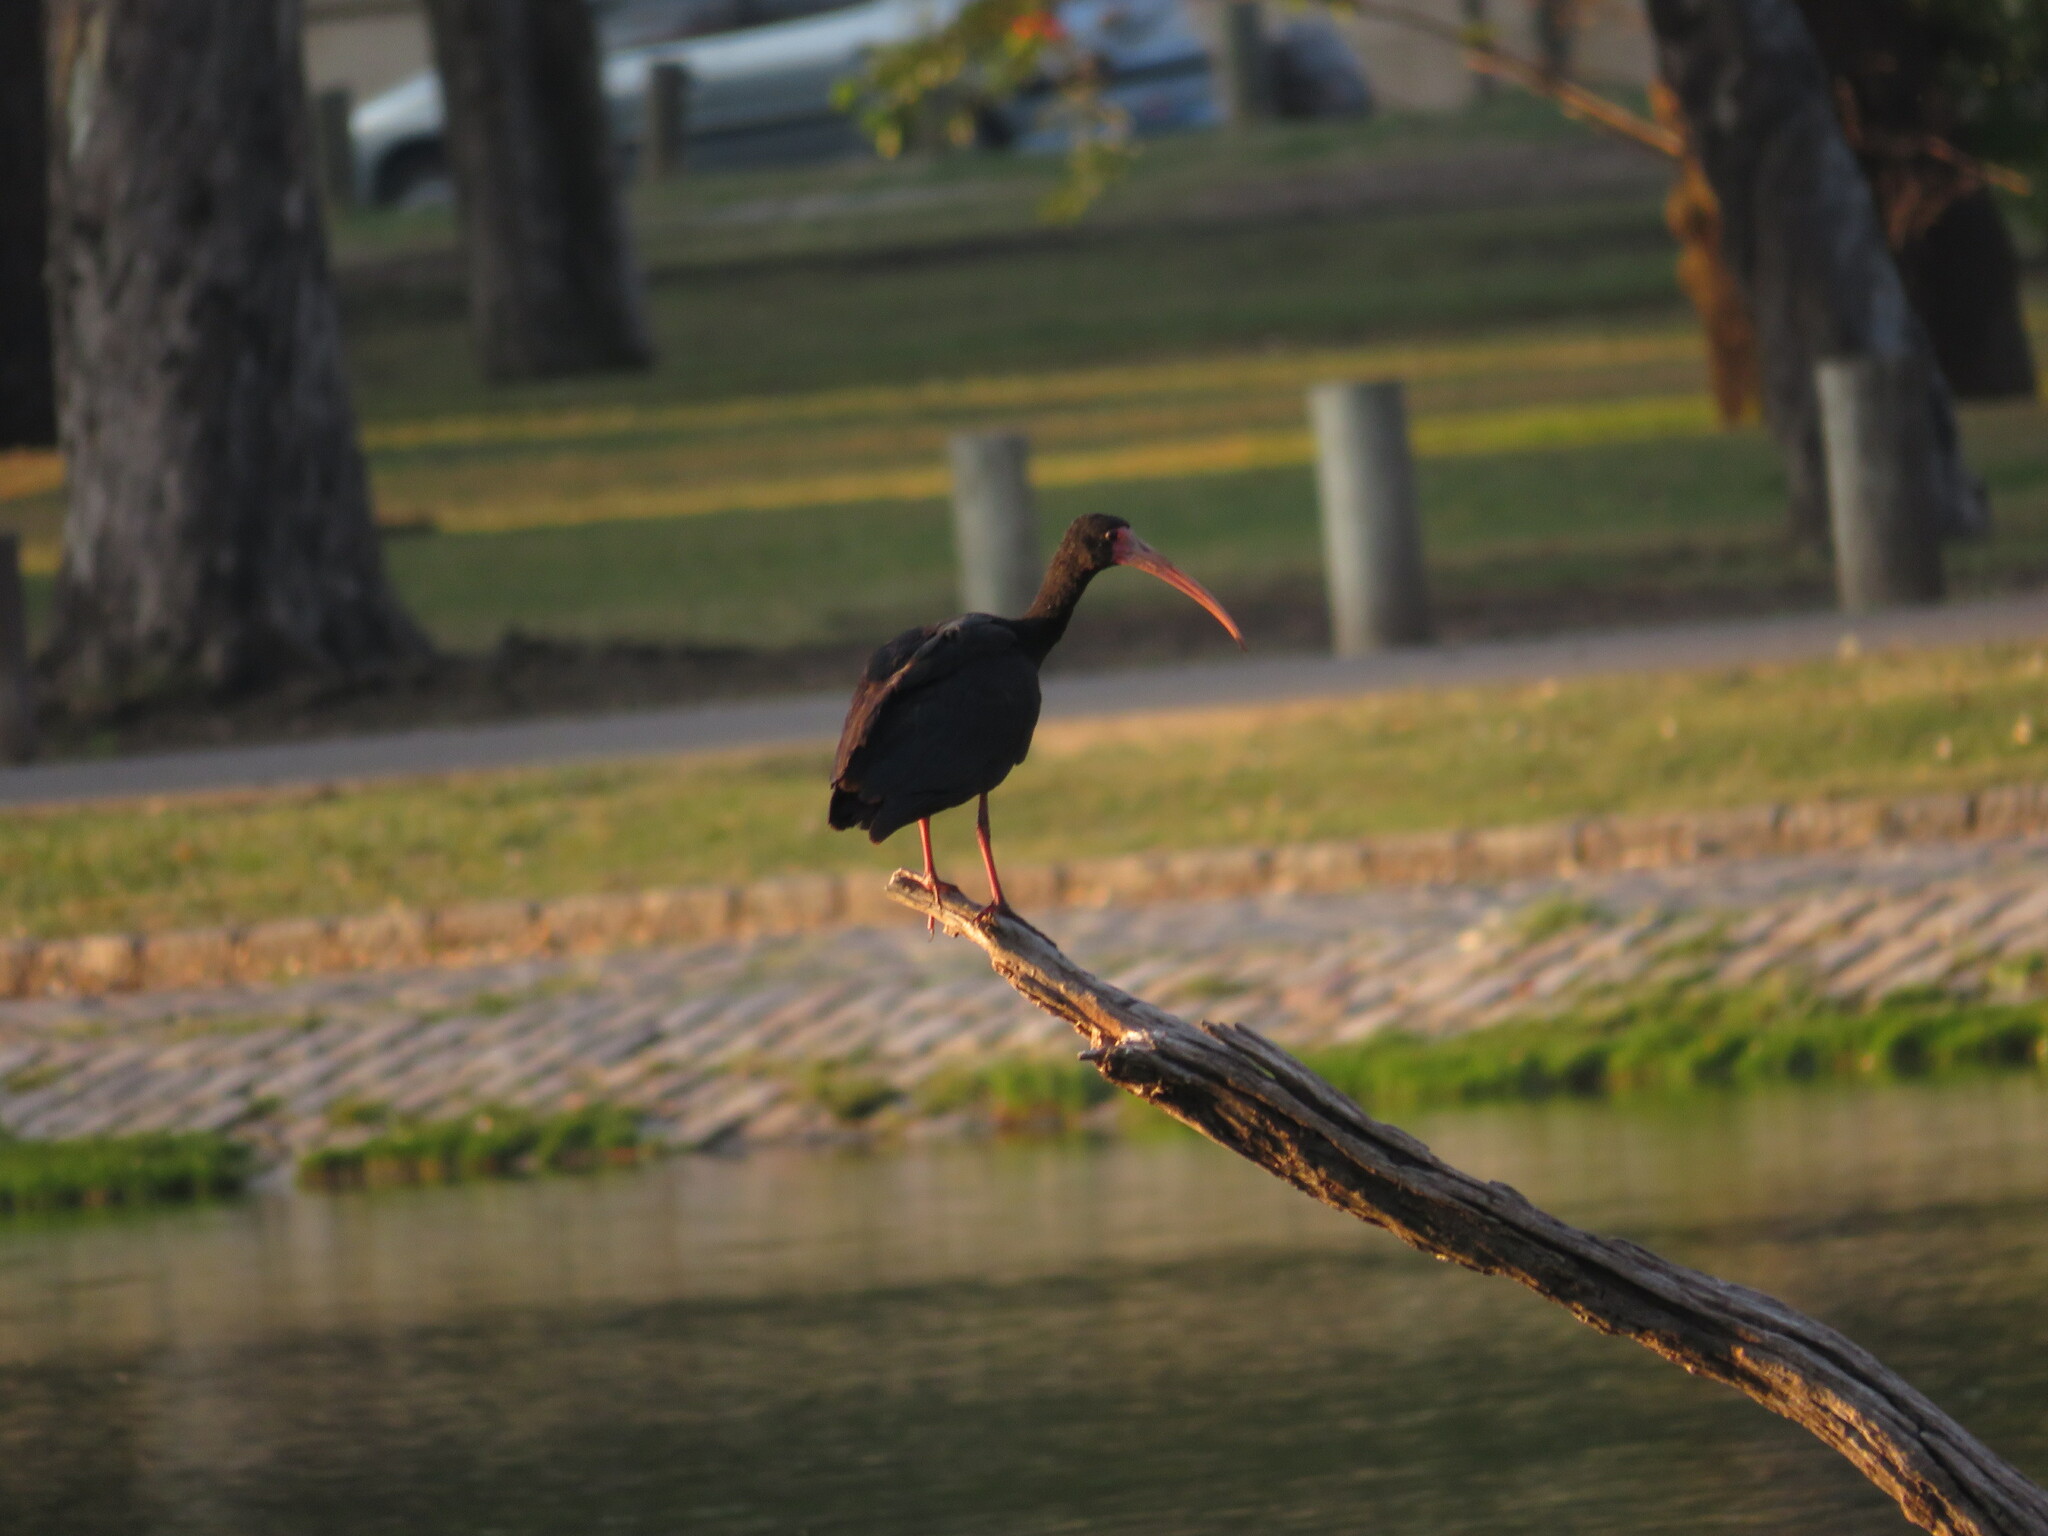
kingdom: Animalia
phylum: Chordata
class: Aves
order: Pelecaniformes
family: Threskiornithidae
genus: Phimosus
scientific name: Phimosus infuscatus
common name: Bare-faced ibis
